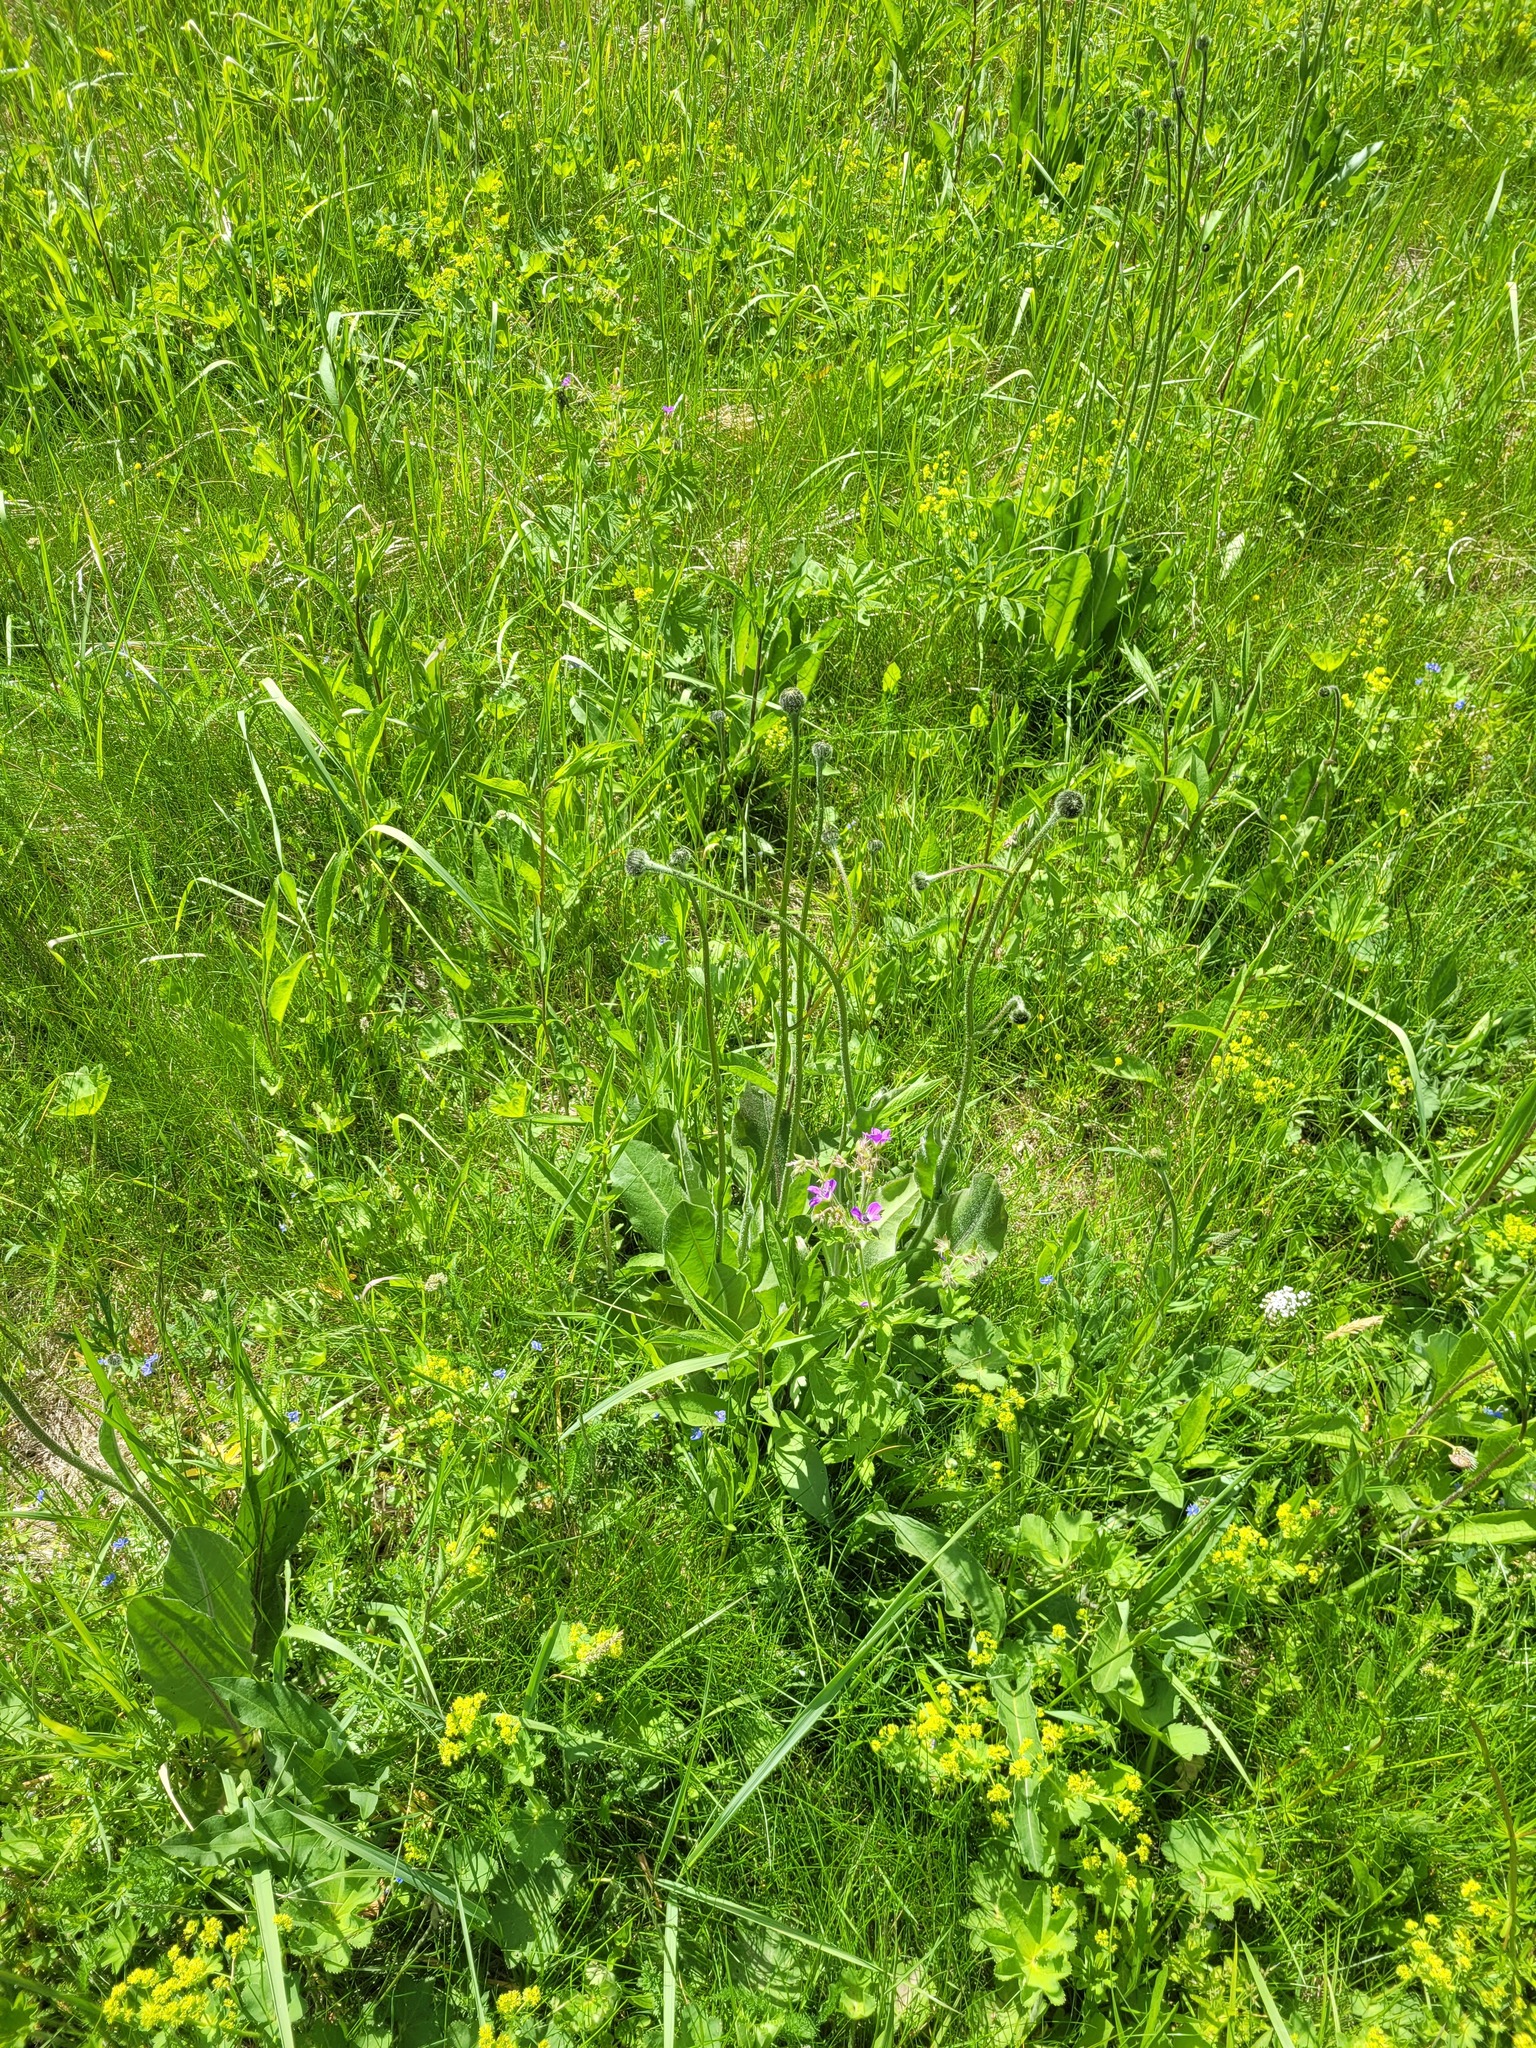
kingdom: Plantae
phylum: Tracheophyta
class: Magnoliopsida
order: Asterales
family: Asteraceae
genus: Trommsdorffia
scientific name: Trommsdorffia maculata
